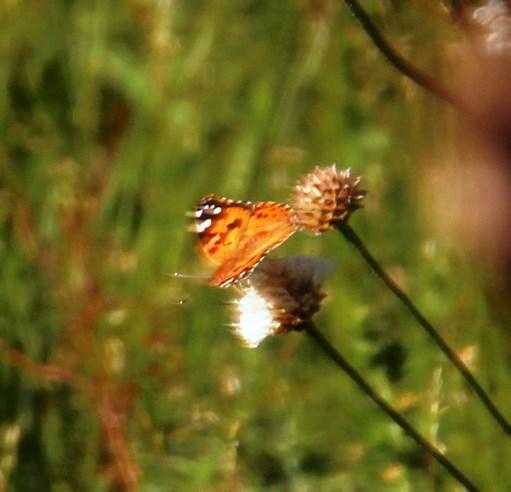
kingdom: Plantae
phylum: Tracheophyta
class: Magnoliopsida
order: Dipsacales
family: Caprifoliaceae
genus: Cephalaria
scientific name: Cephalaria rigida
